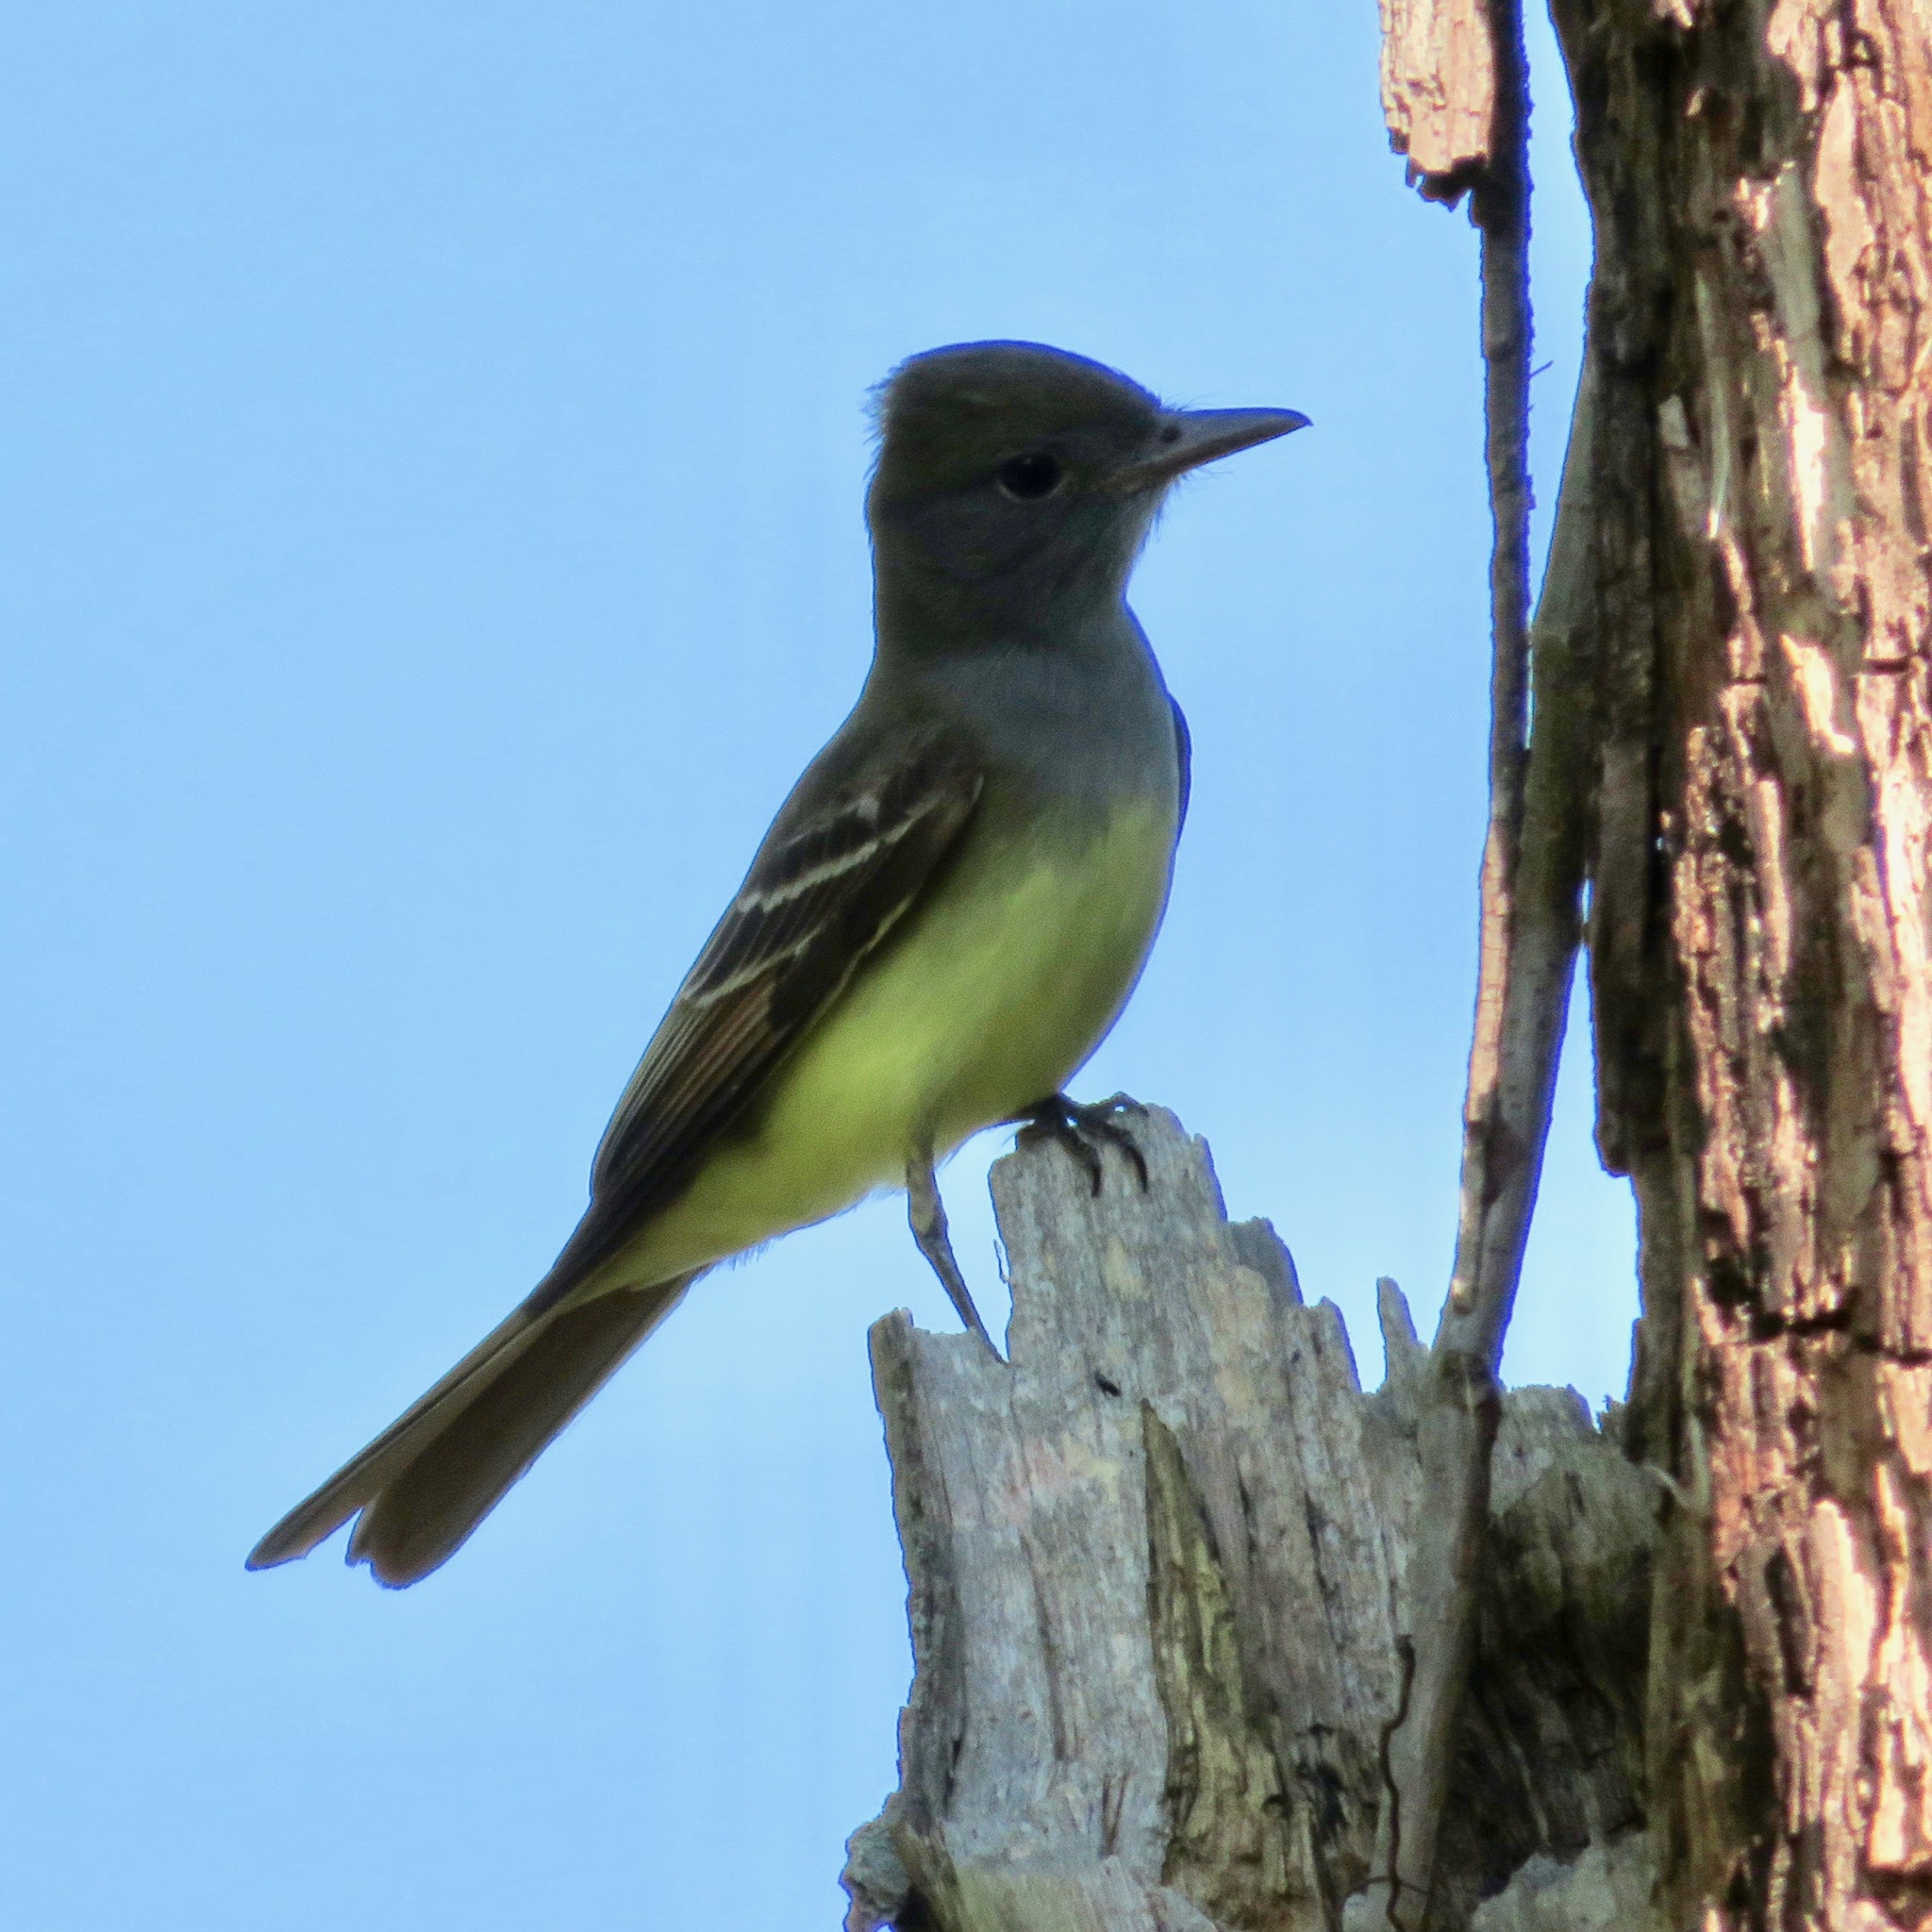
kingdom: Animalia
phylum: Chordata
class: Aves
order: Passeriformes
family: Tyrannidae
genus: Myiarchus
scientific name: Myiarchus crinitus
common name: Great crested flycatcher
